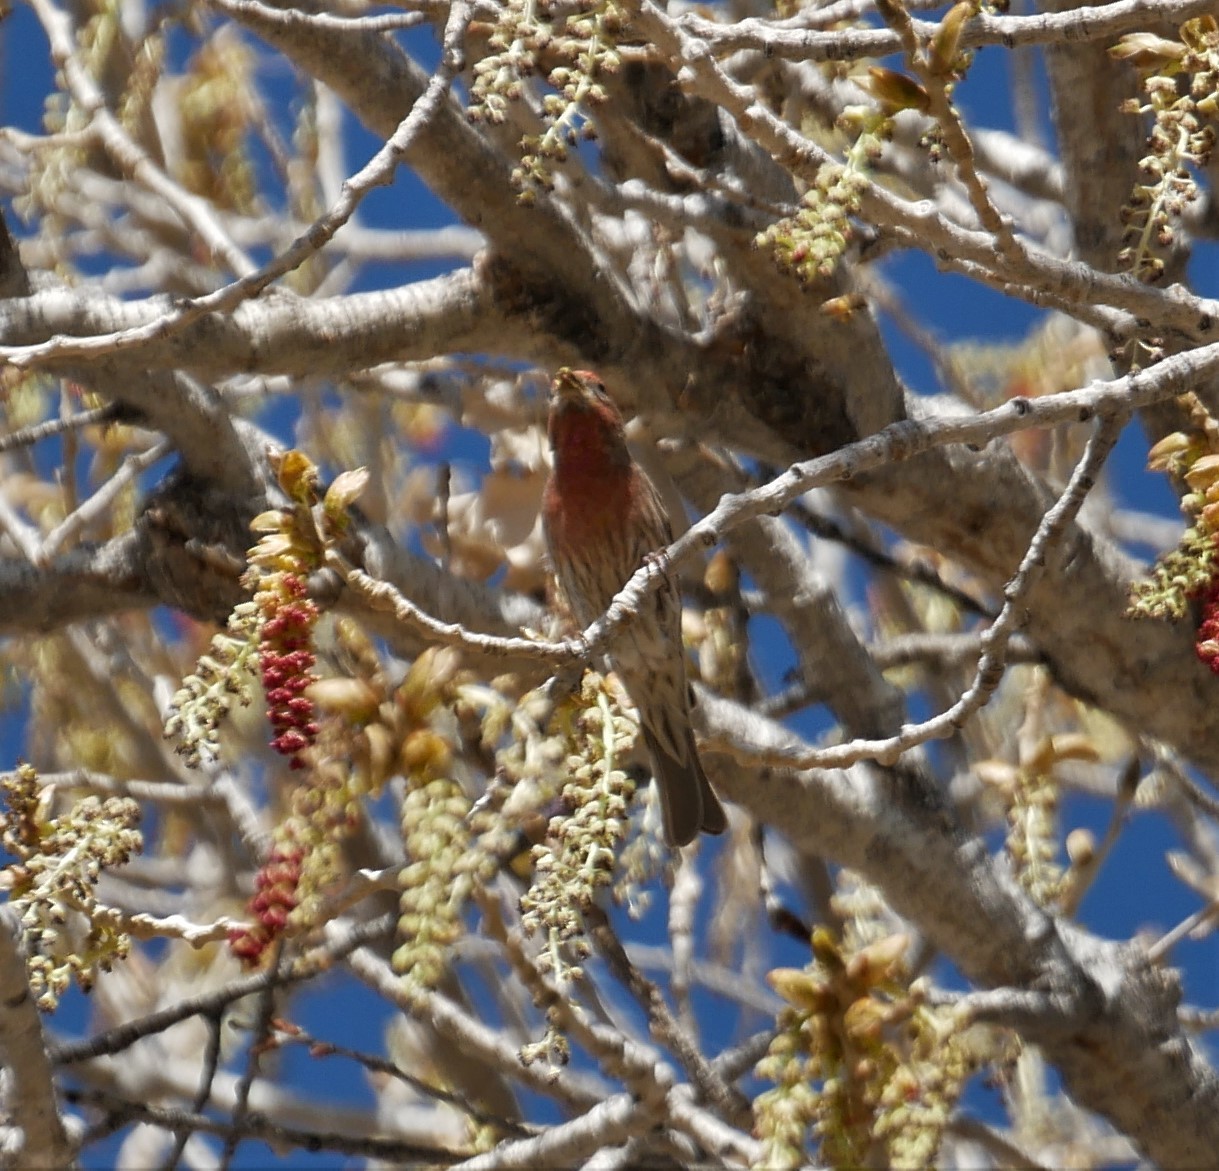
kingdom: Animalia
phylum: Chordata
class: Aves
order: Passeriformes
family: Fringillidae
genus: Haemorhous
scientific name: Haemorhous mexicanus
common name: House finch
